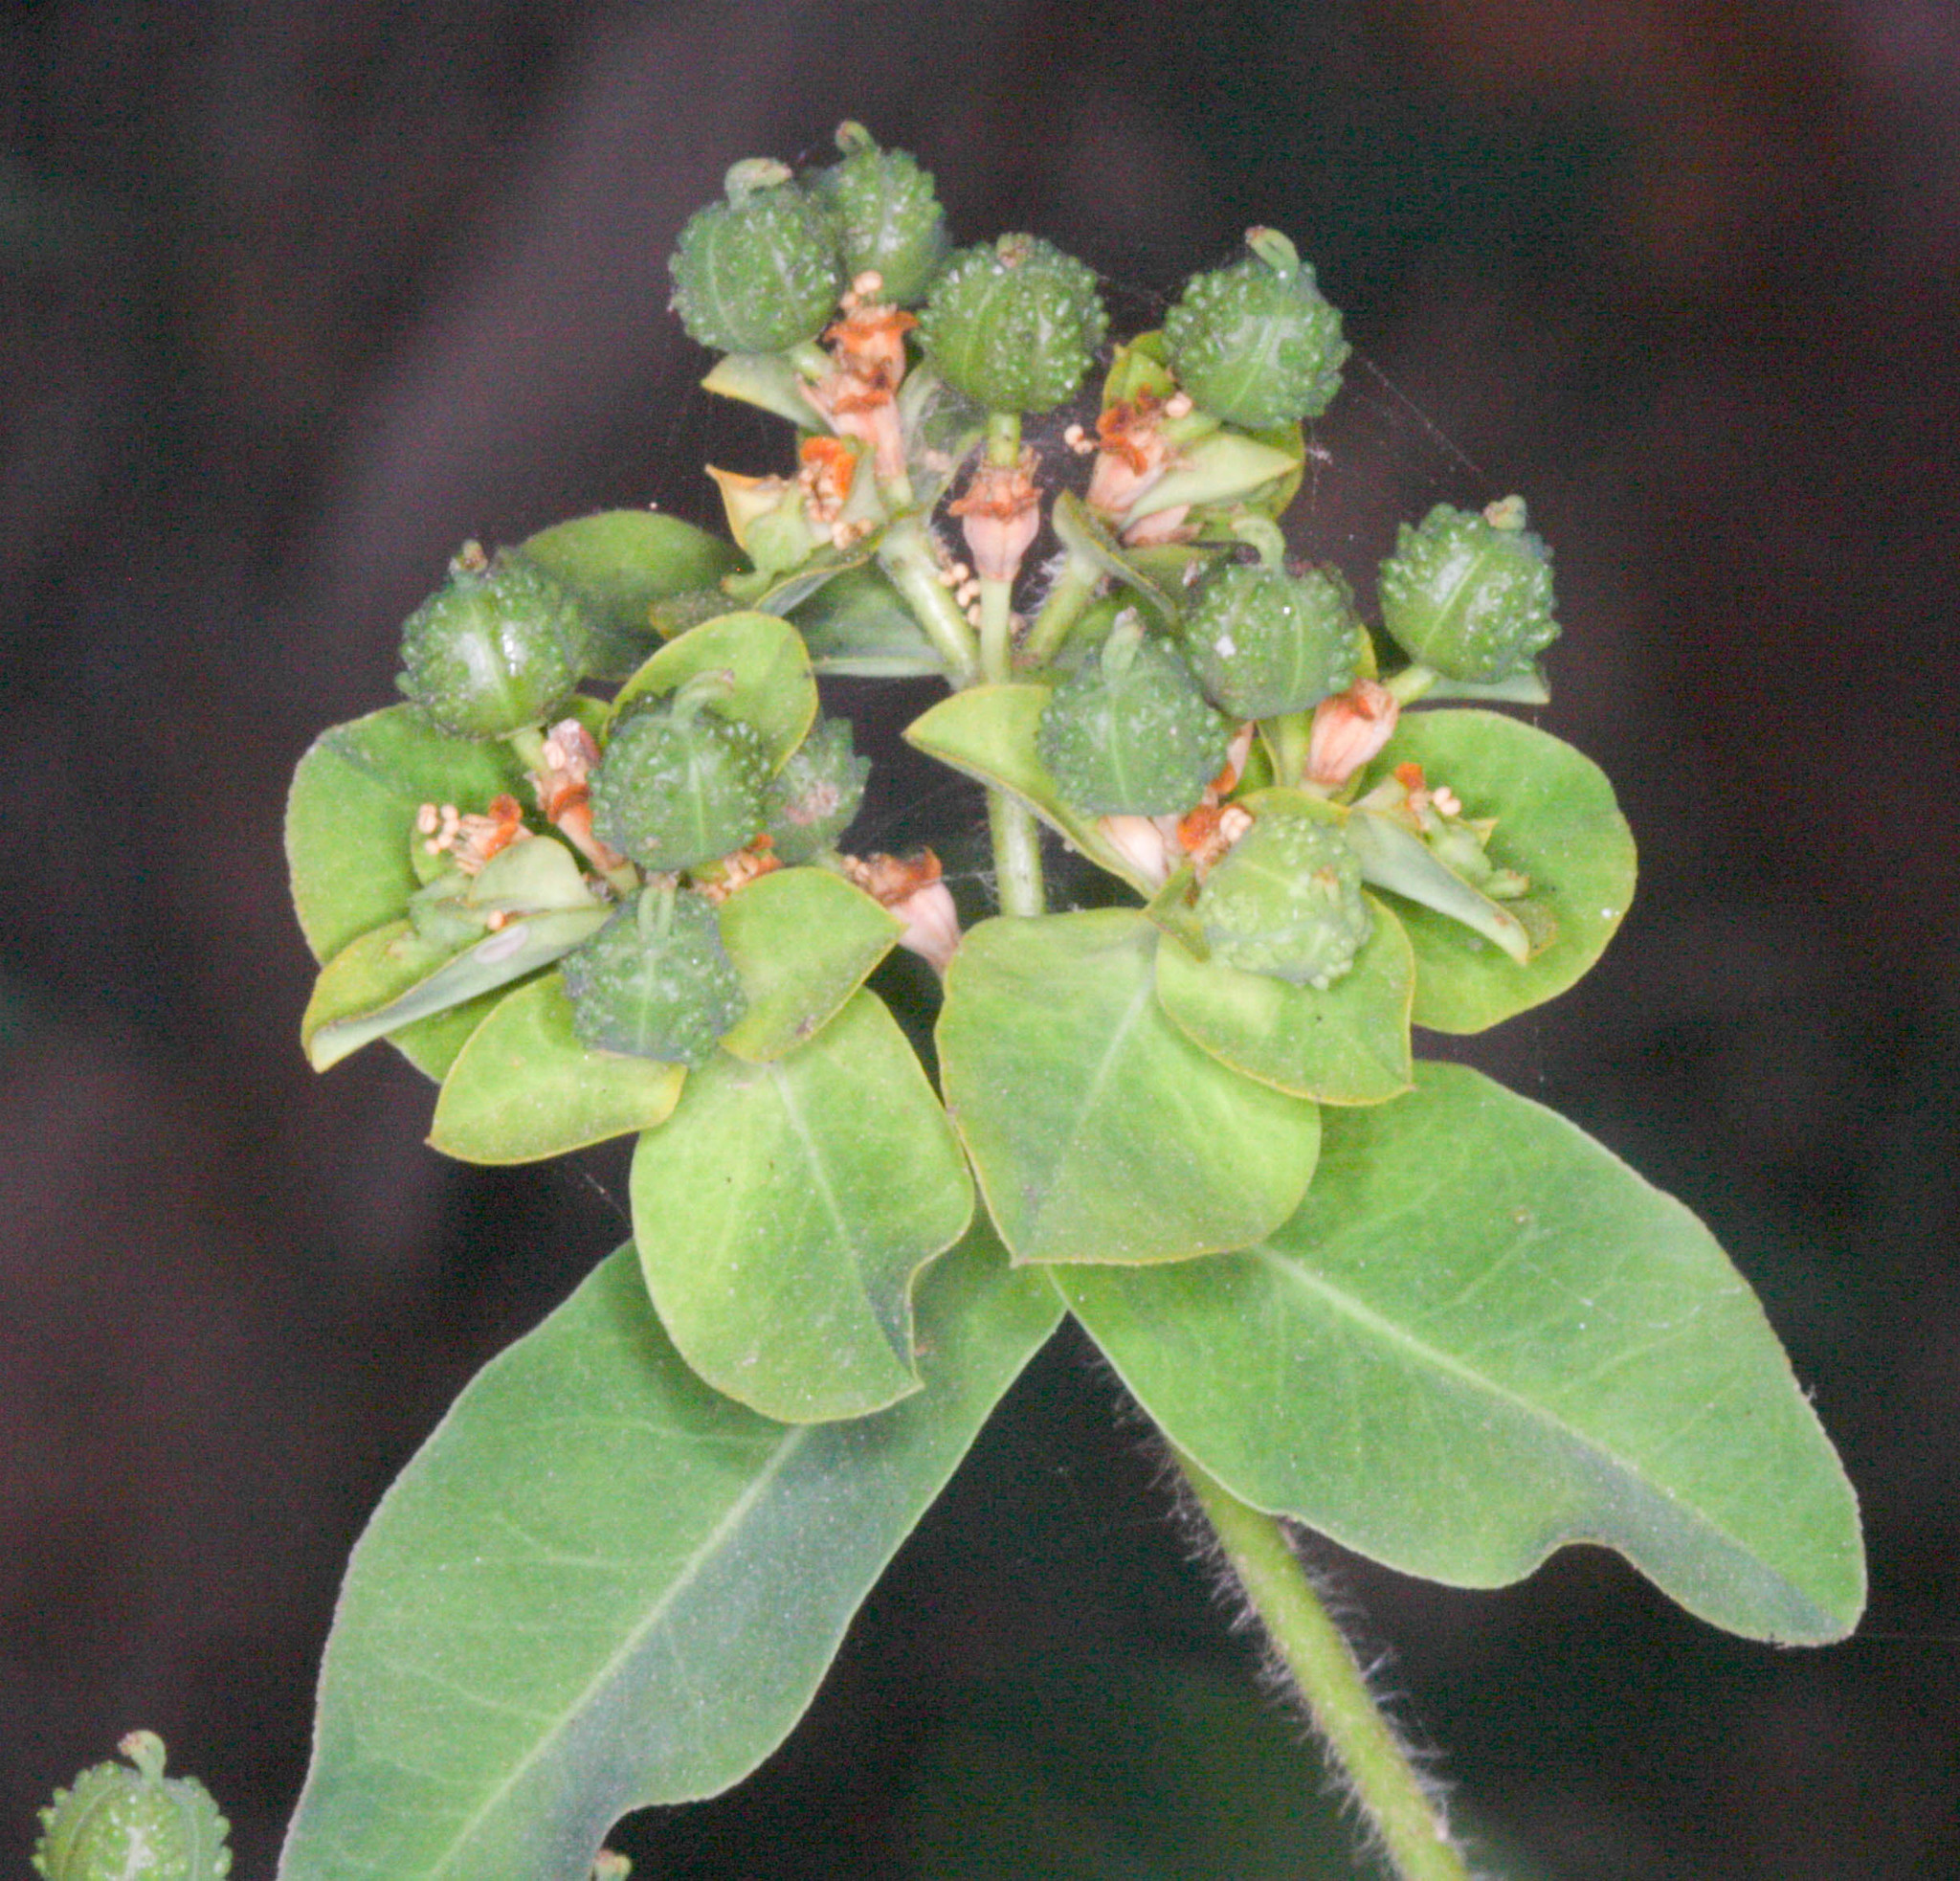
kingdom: Plantae
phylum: Tracheophyta
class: Magnoliopsida
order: Malpighiales
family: Euphorbiaceae
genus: Euphorbia
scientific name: Euphorbia oblongata
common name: Balkan spurge
